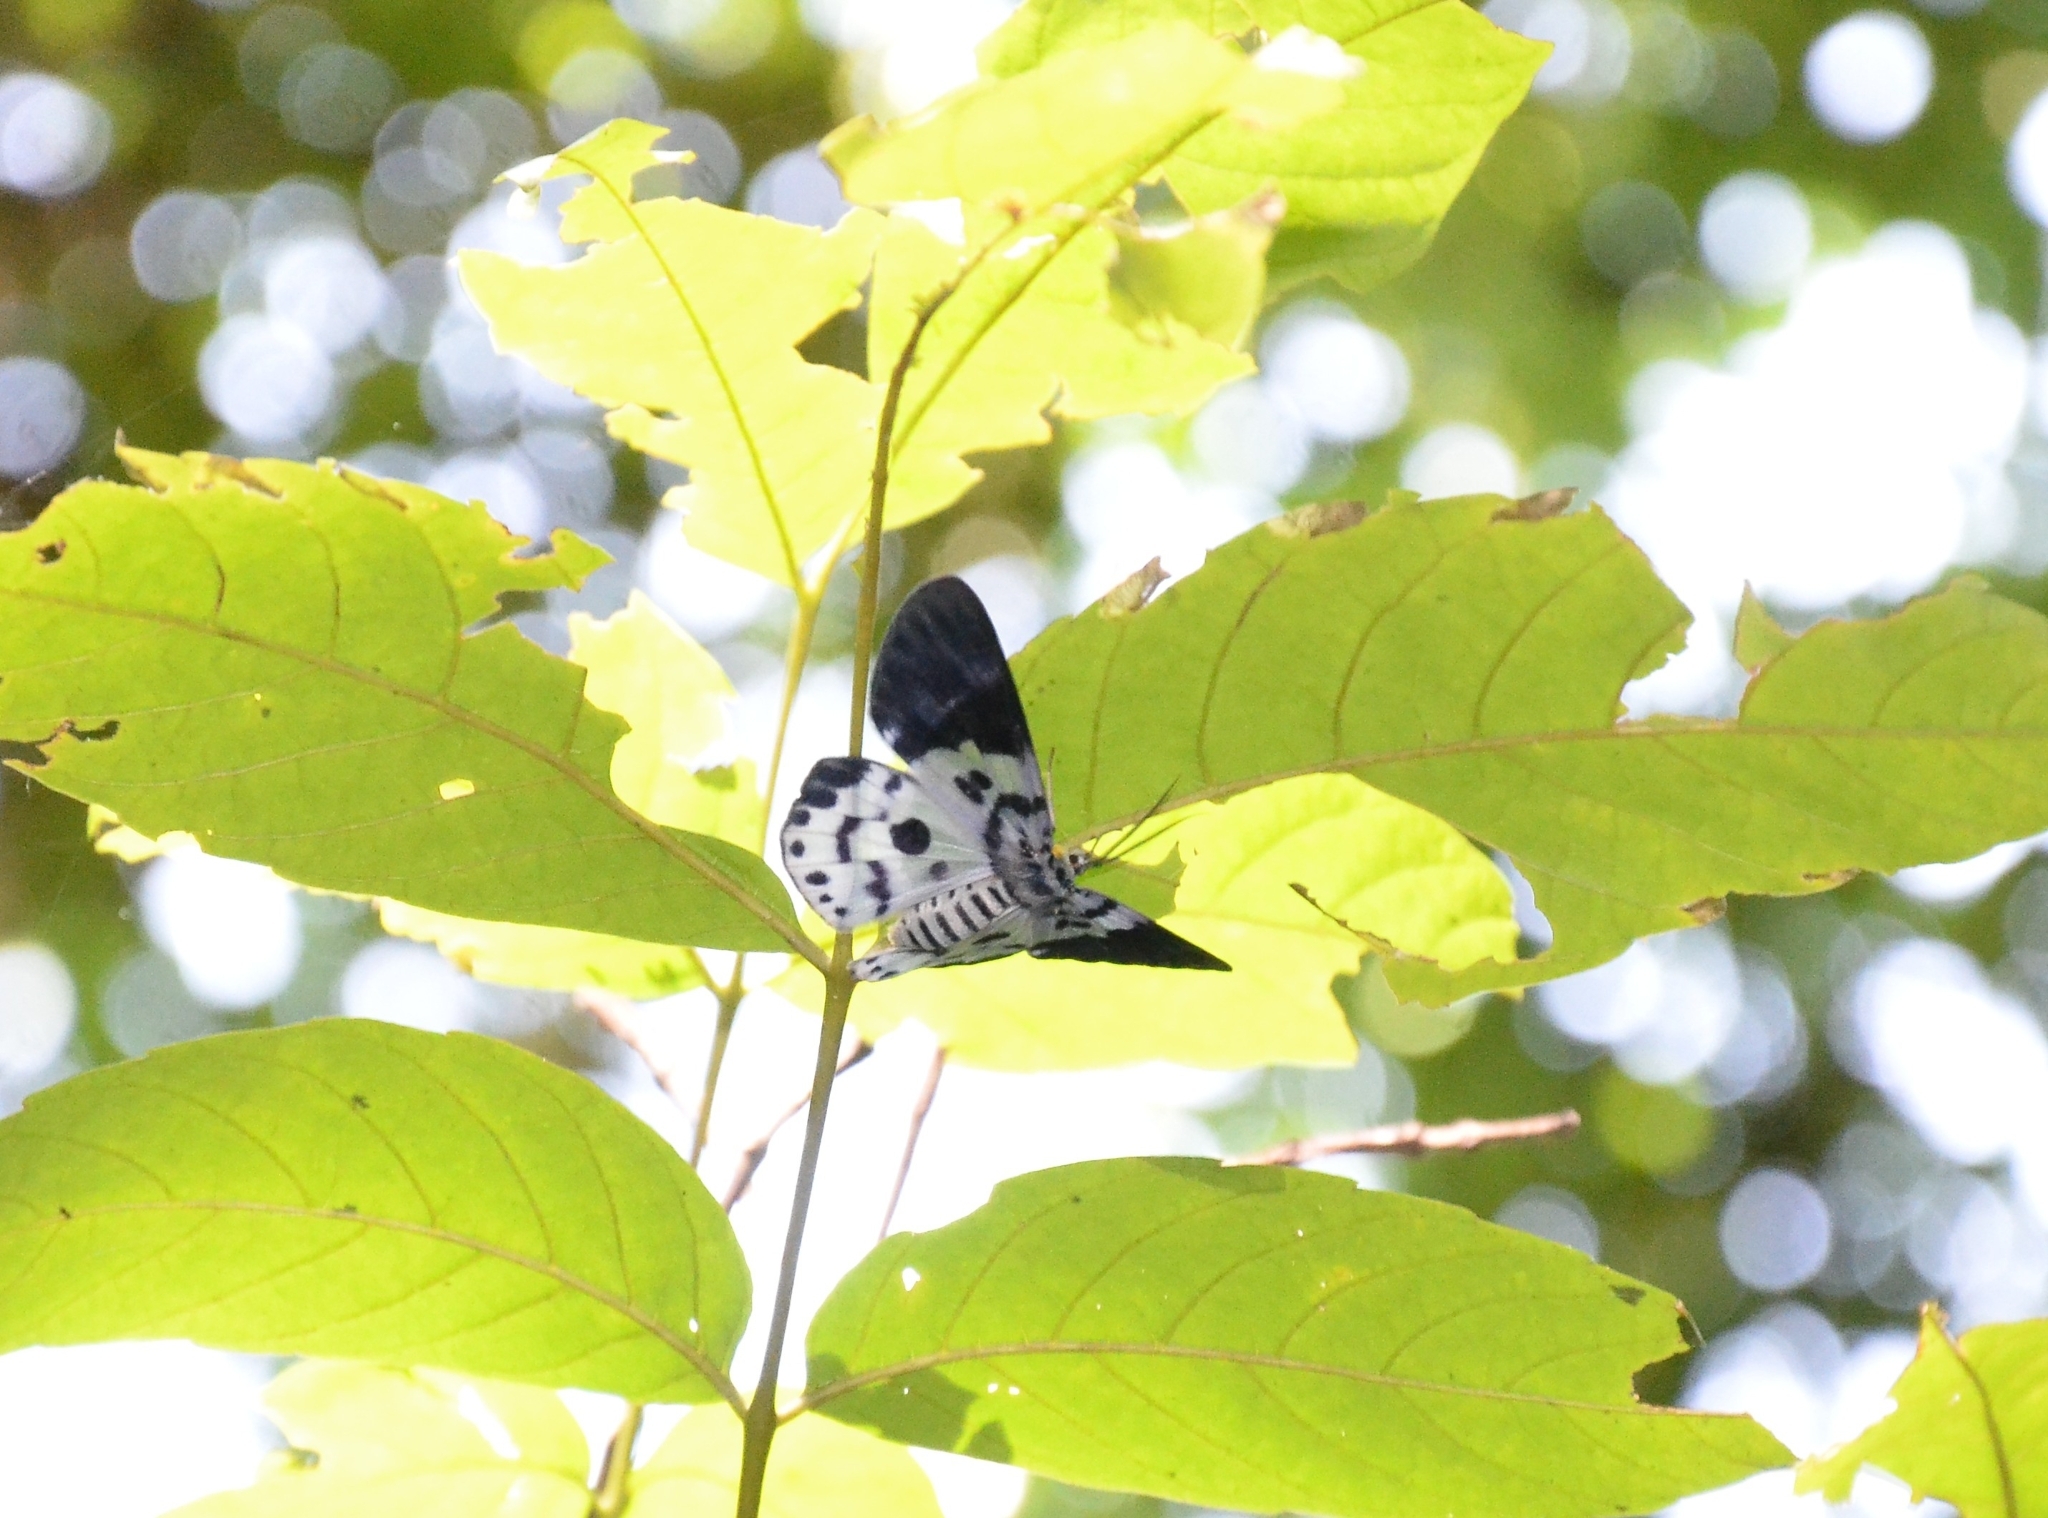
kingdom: Animalia
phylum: Arthropoda
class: Insecta
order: Lepidoptera
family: Geometridae
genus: Dysphania
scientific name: Dysphania percota
